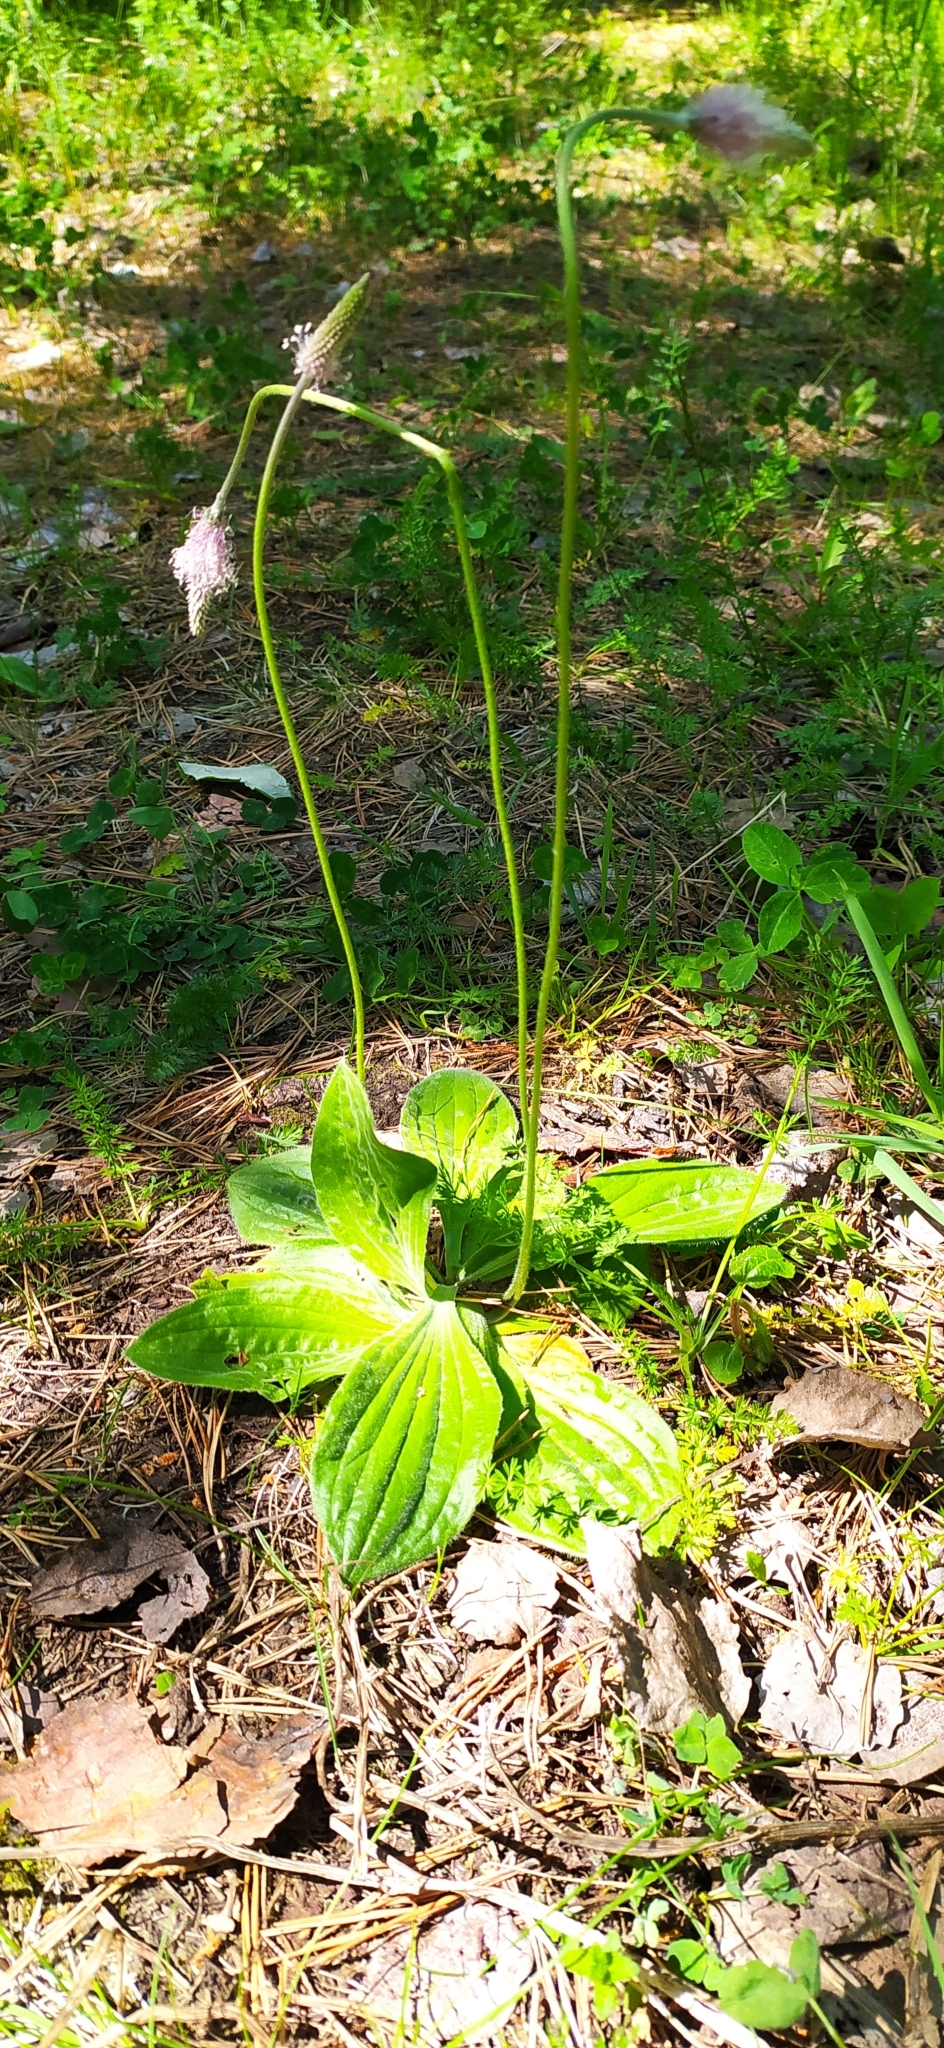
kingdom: Plantae
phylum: Tracheophyta
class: Magnoliopsida
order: Lamiales
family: Plantaginaceae
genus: Plantago
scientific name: Plantago media
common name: Hoary plantain
